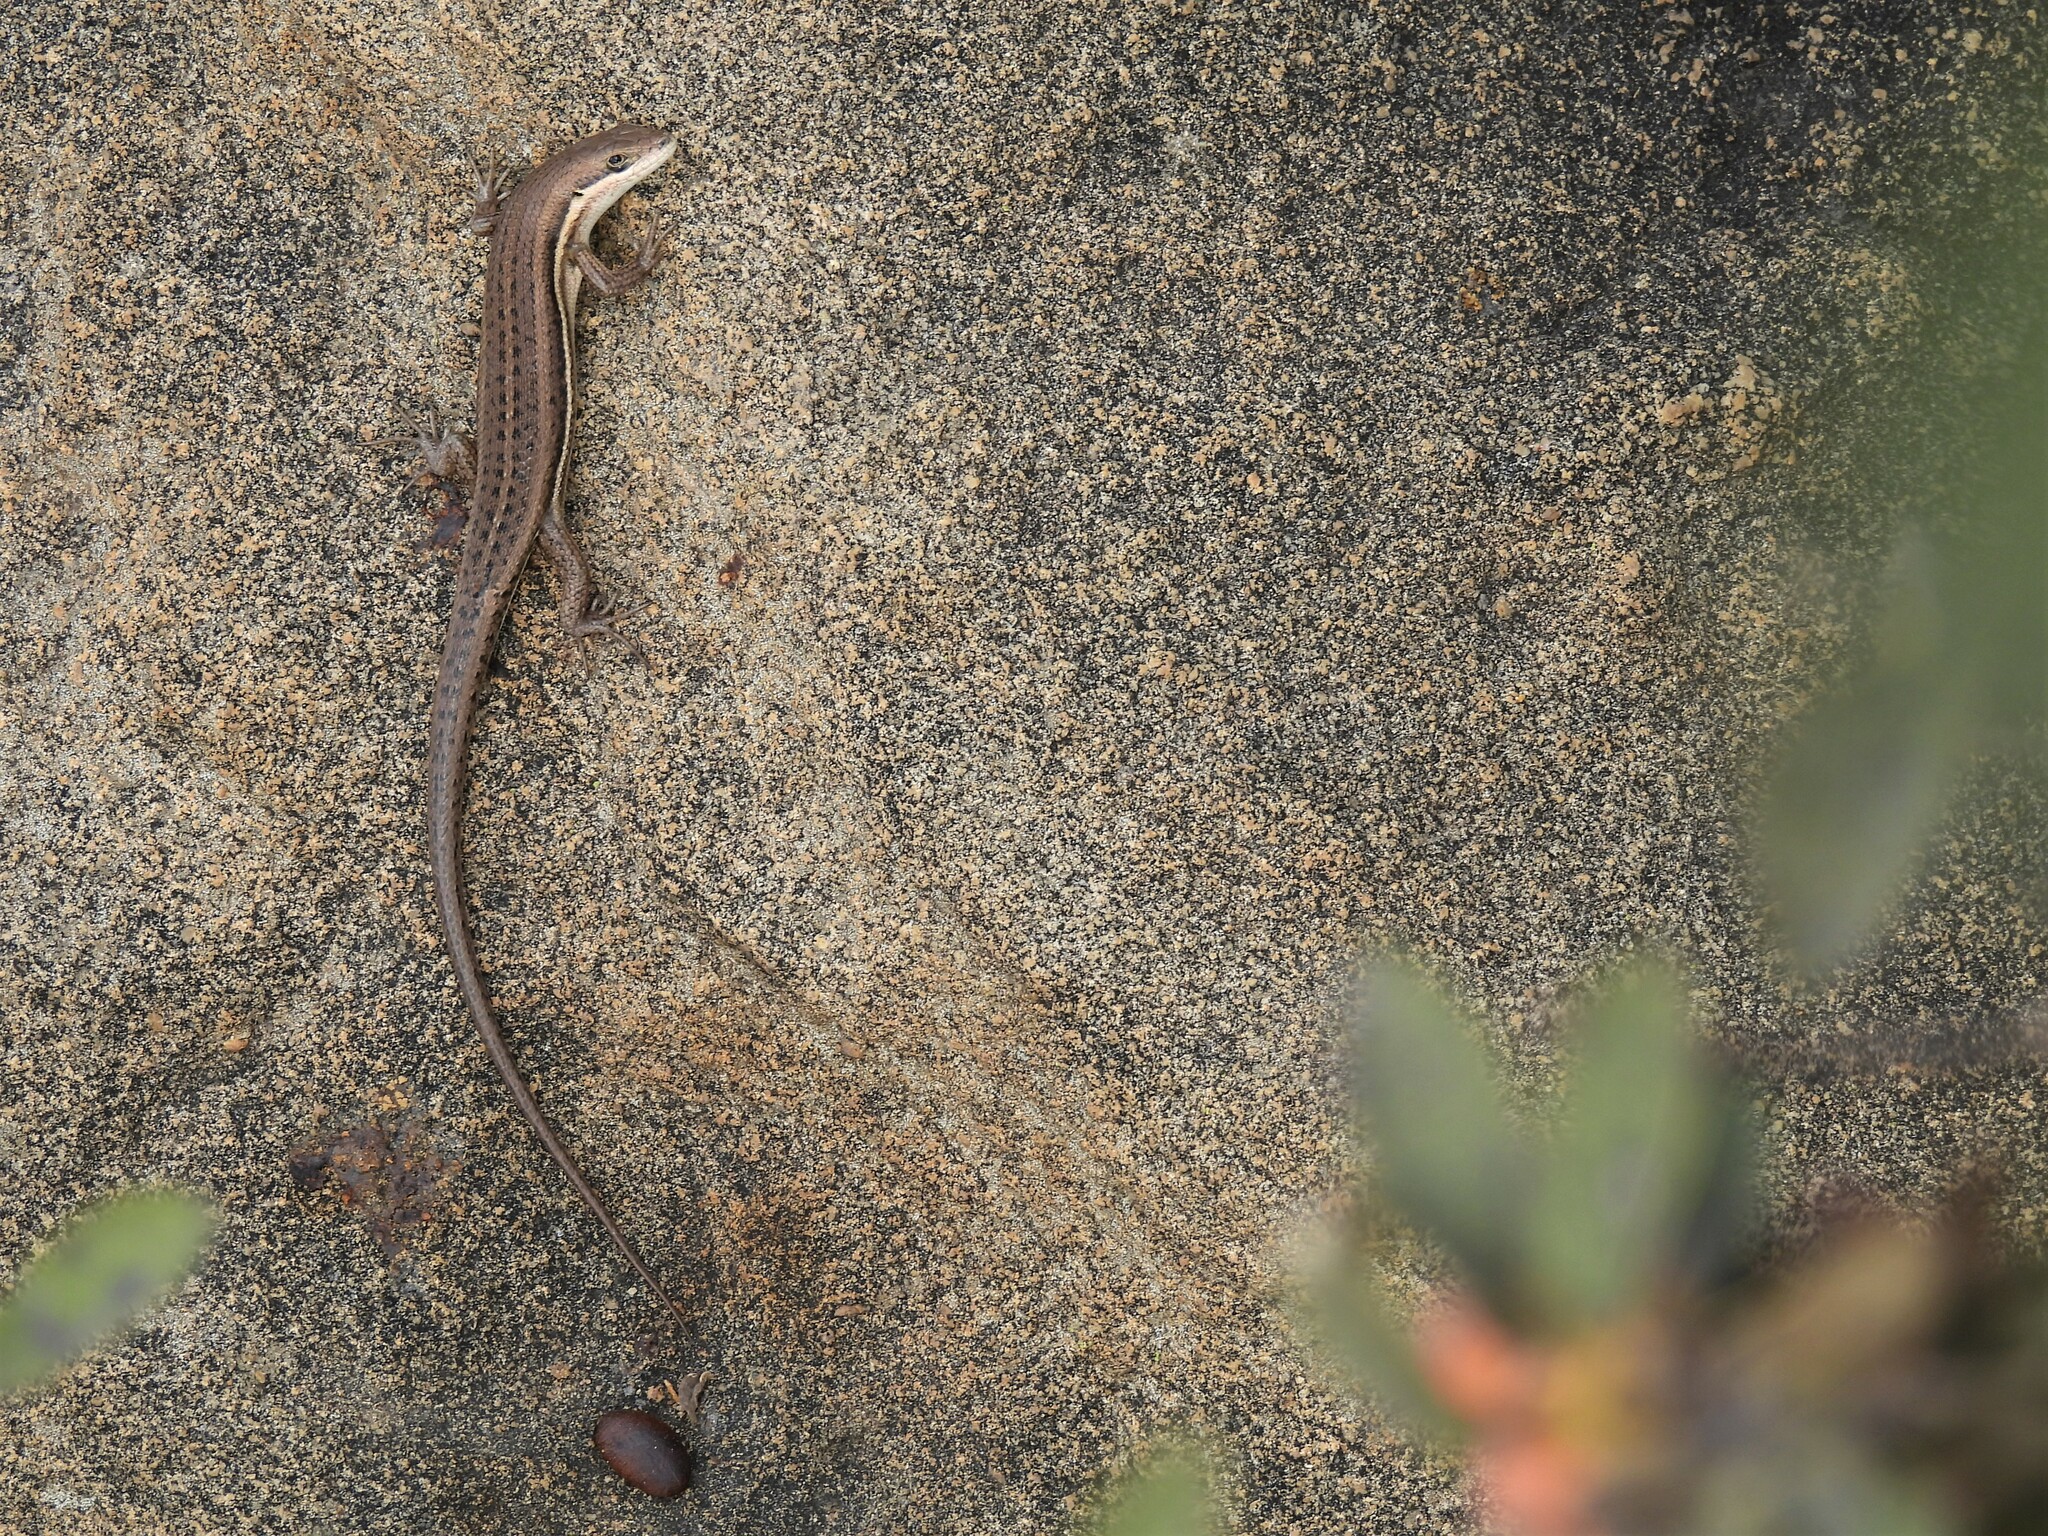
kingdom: Animalia
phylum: Chordata
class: Squamata
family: Scincidae
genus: Trachylepis
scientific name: Trachylepis varia
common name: Eastern variable skink
